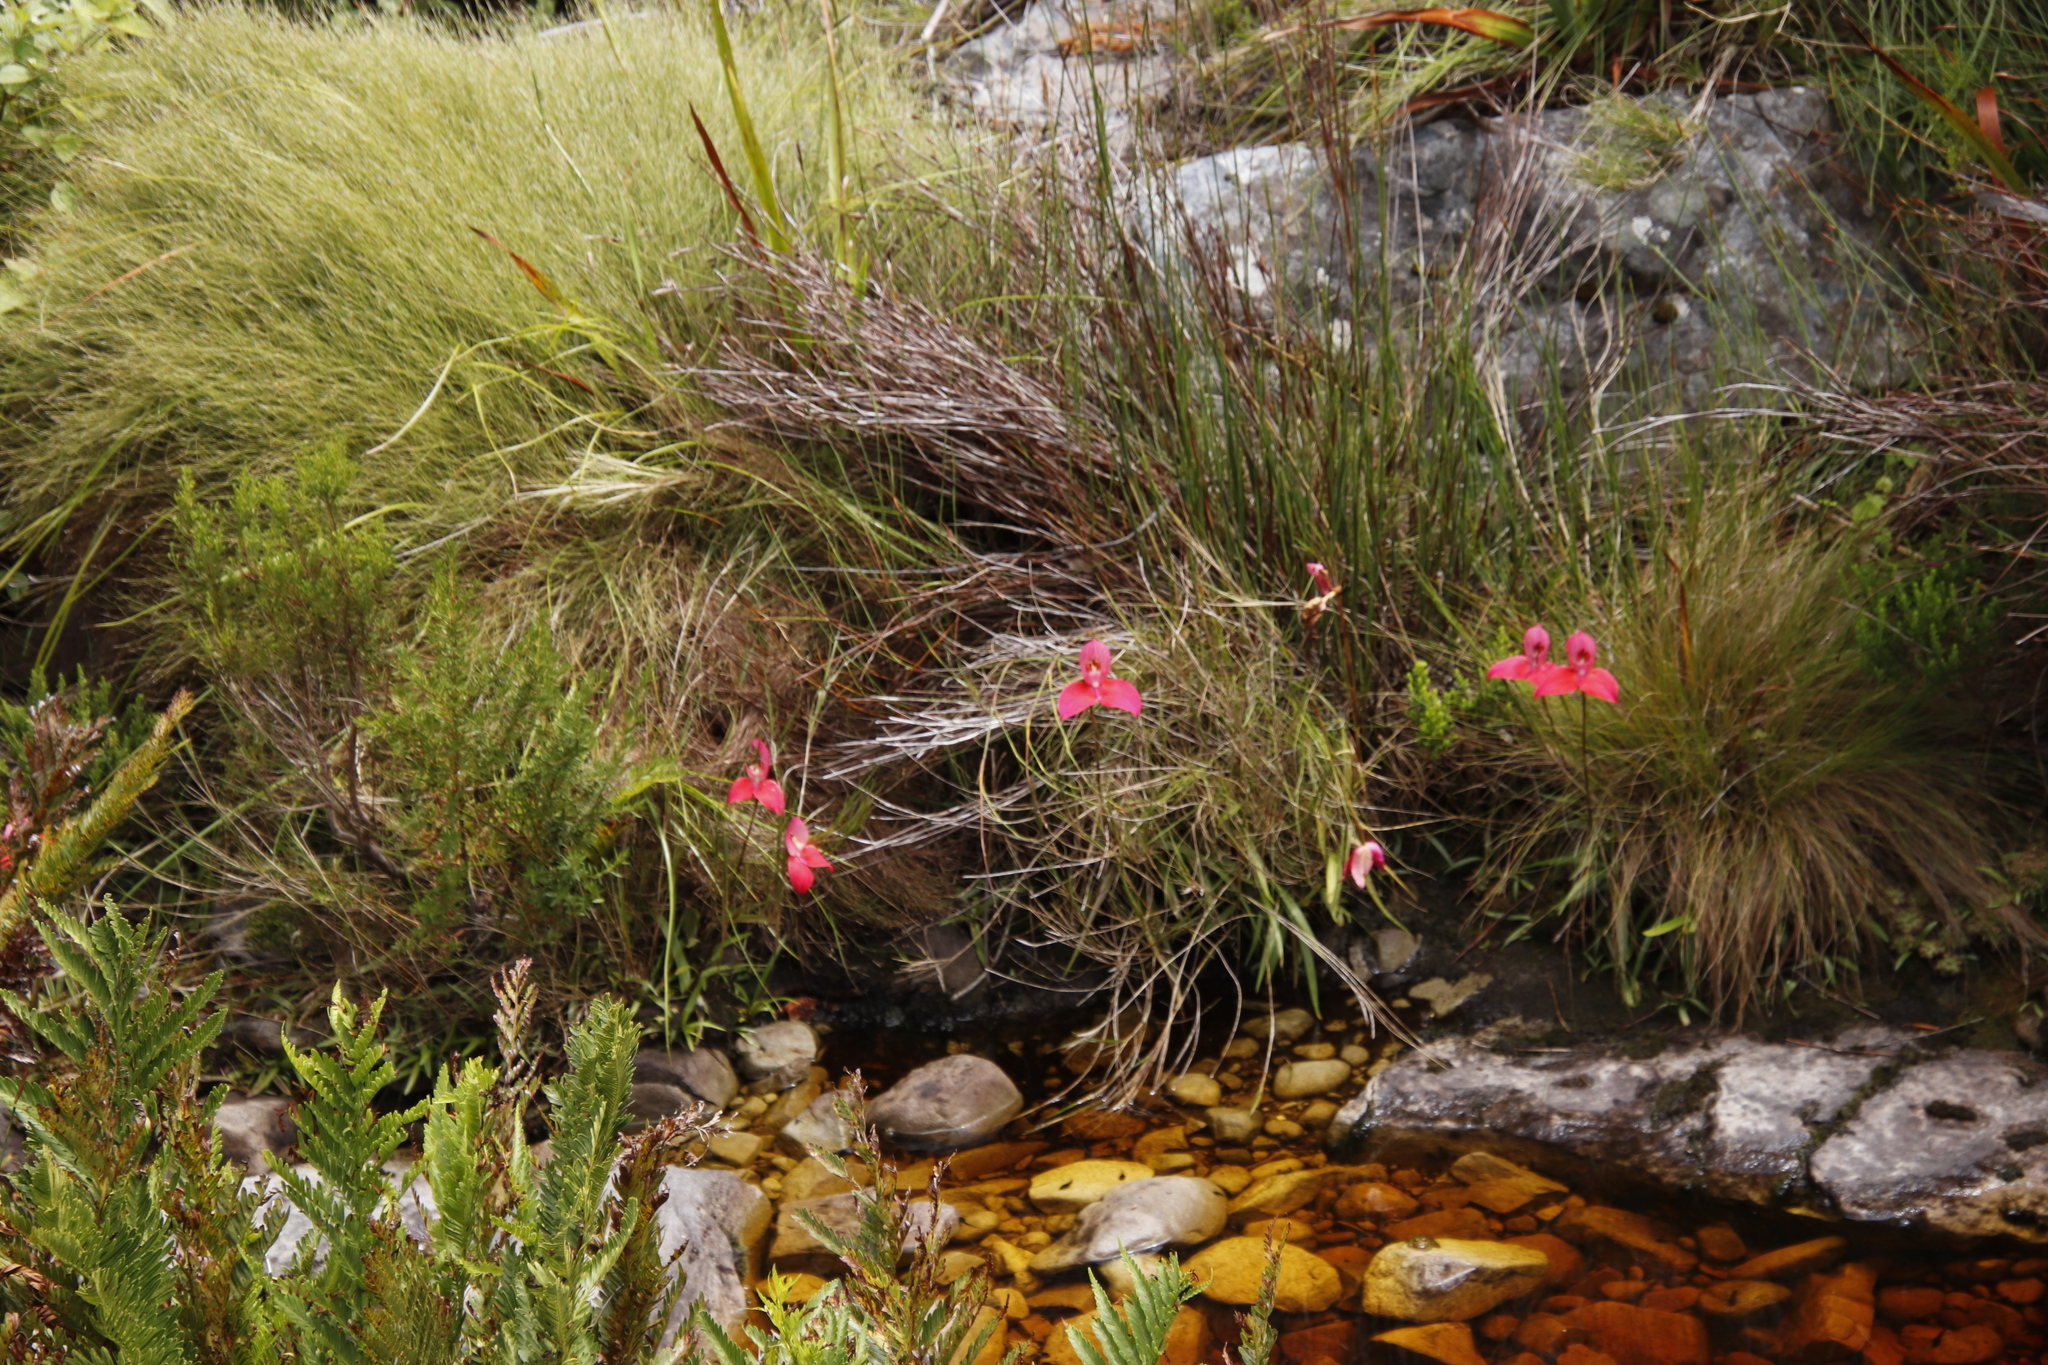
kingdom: Plantae
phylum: Tracheophyta
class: Liliopsida
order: Asparagales
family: Orchidaceae
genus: Disa
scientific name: Disa uniflora
